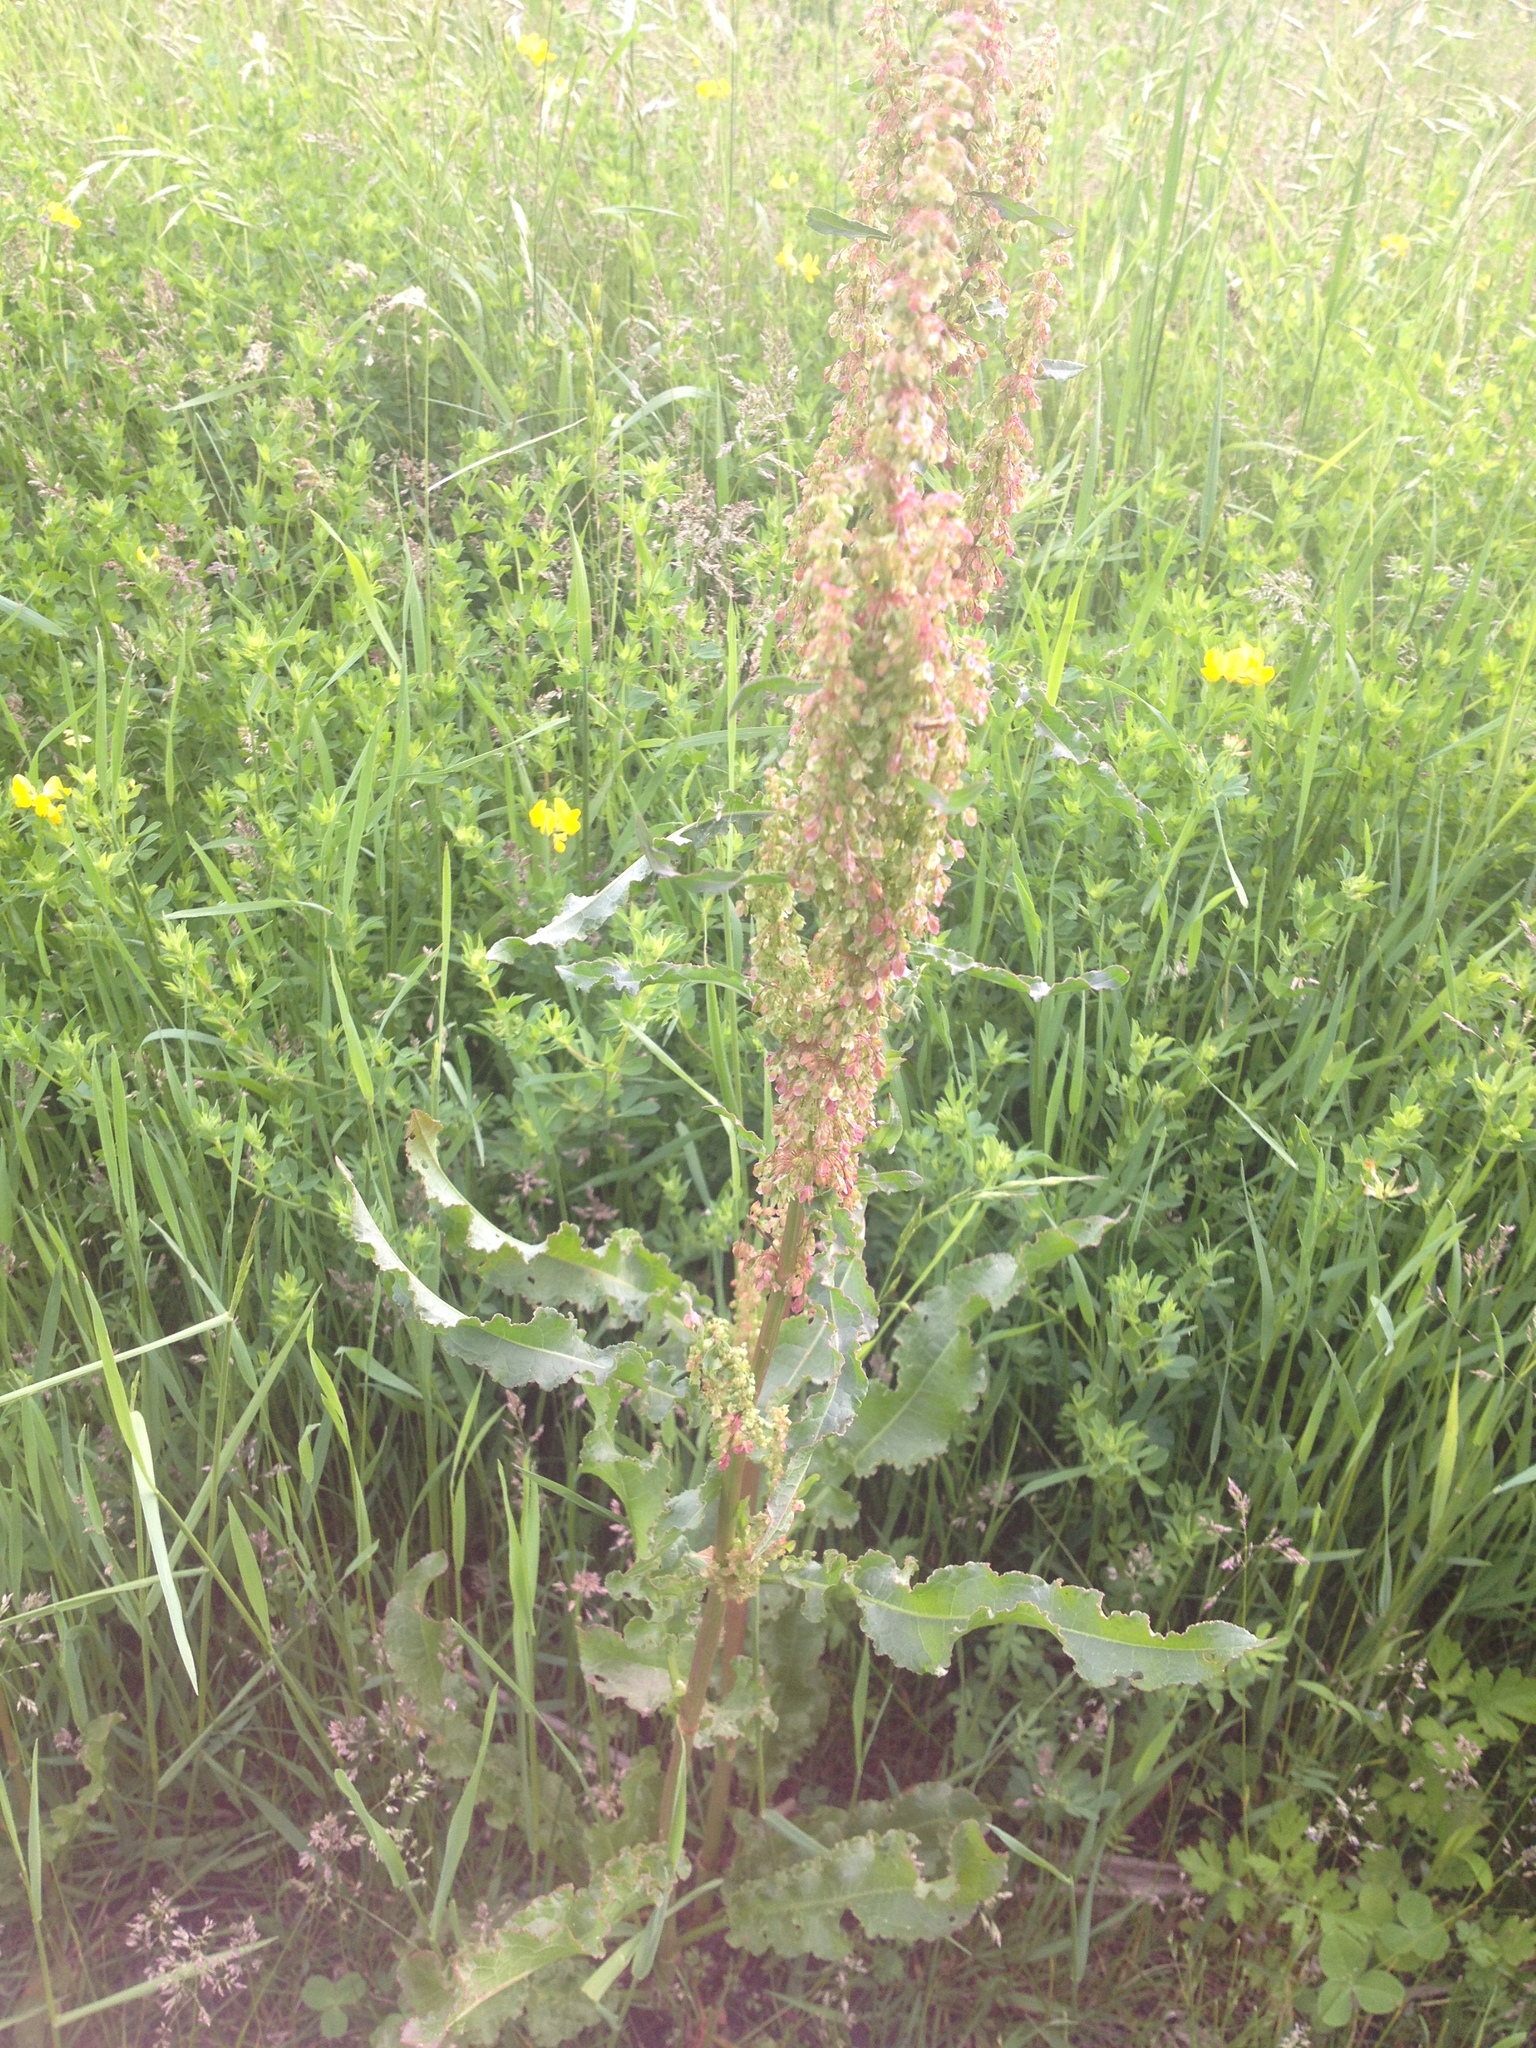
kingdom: Plantae
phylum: Tracheophyta
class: Magnoliopsida
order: Caryophyllales
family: Polygonaceae
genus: Rumex
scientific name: Rumex crispus
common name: Curled dock
